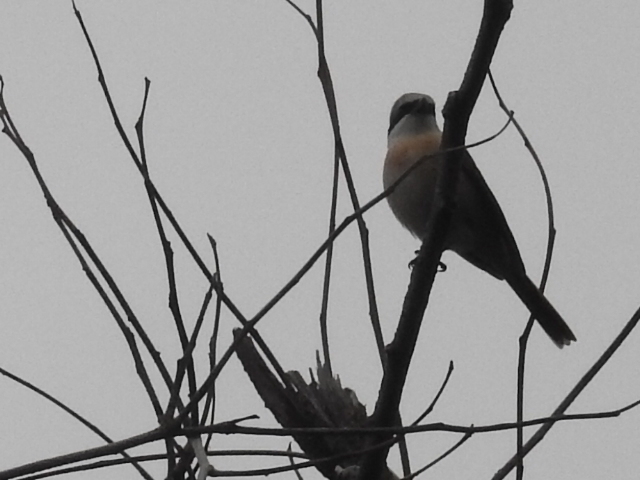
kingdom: Animalia
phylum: Chordata
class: Aves
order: Passeriformes
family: Laniidae
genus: Lanius
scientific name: Lanius cristatus
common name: Brown shrike
